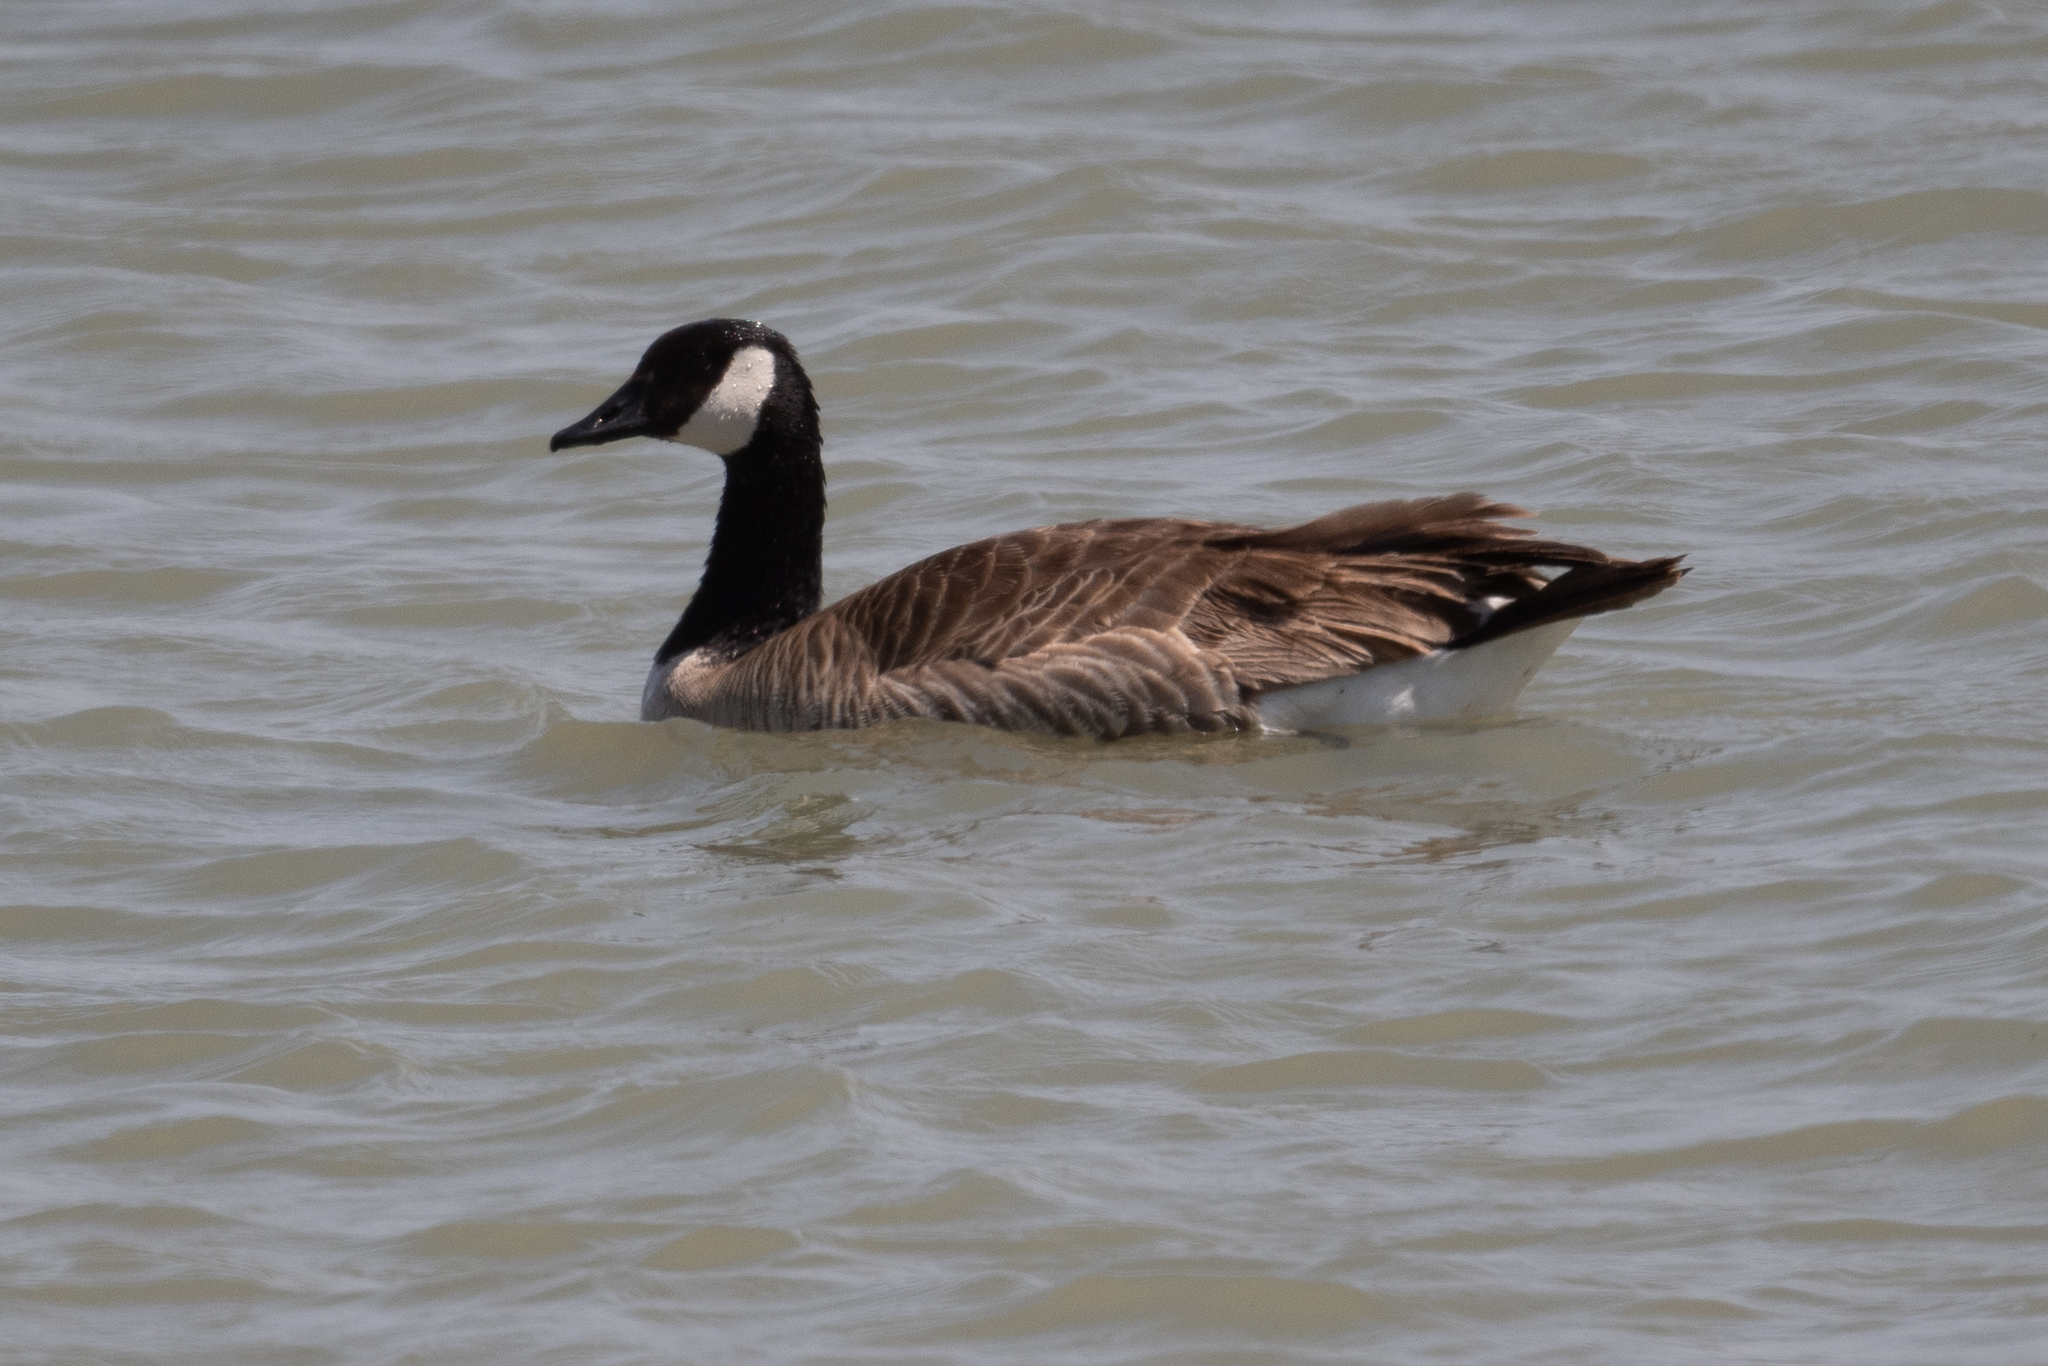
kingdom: Animalia
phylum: Chordata
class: Aves
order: Anseriformes
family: Anatidae
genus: Branta
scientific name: Branta canadensis
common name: Canada goose
